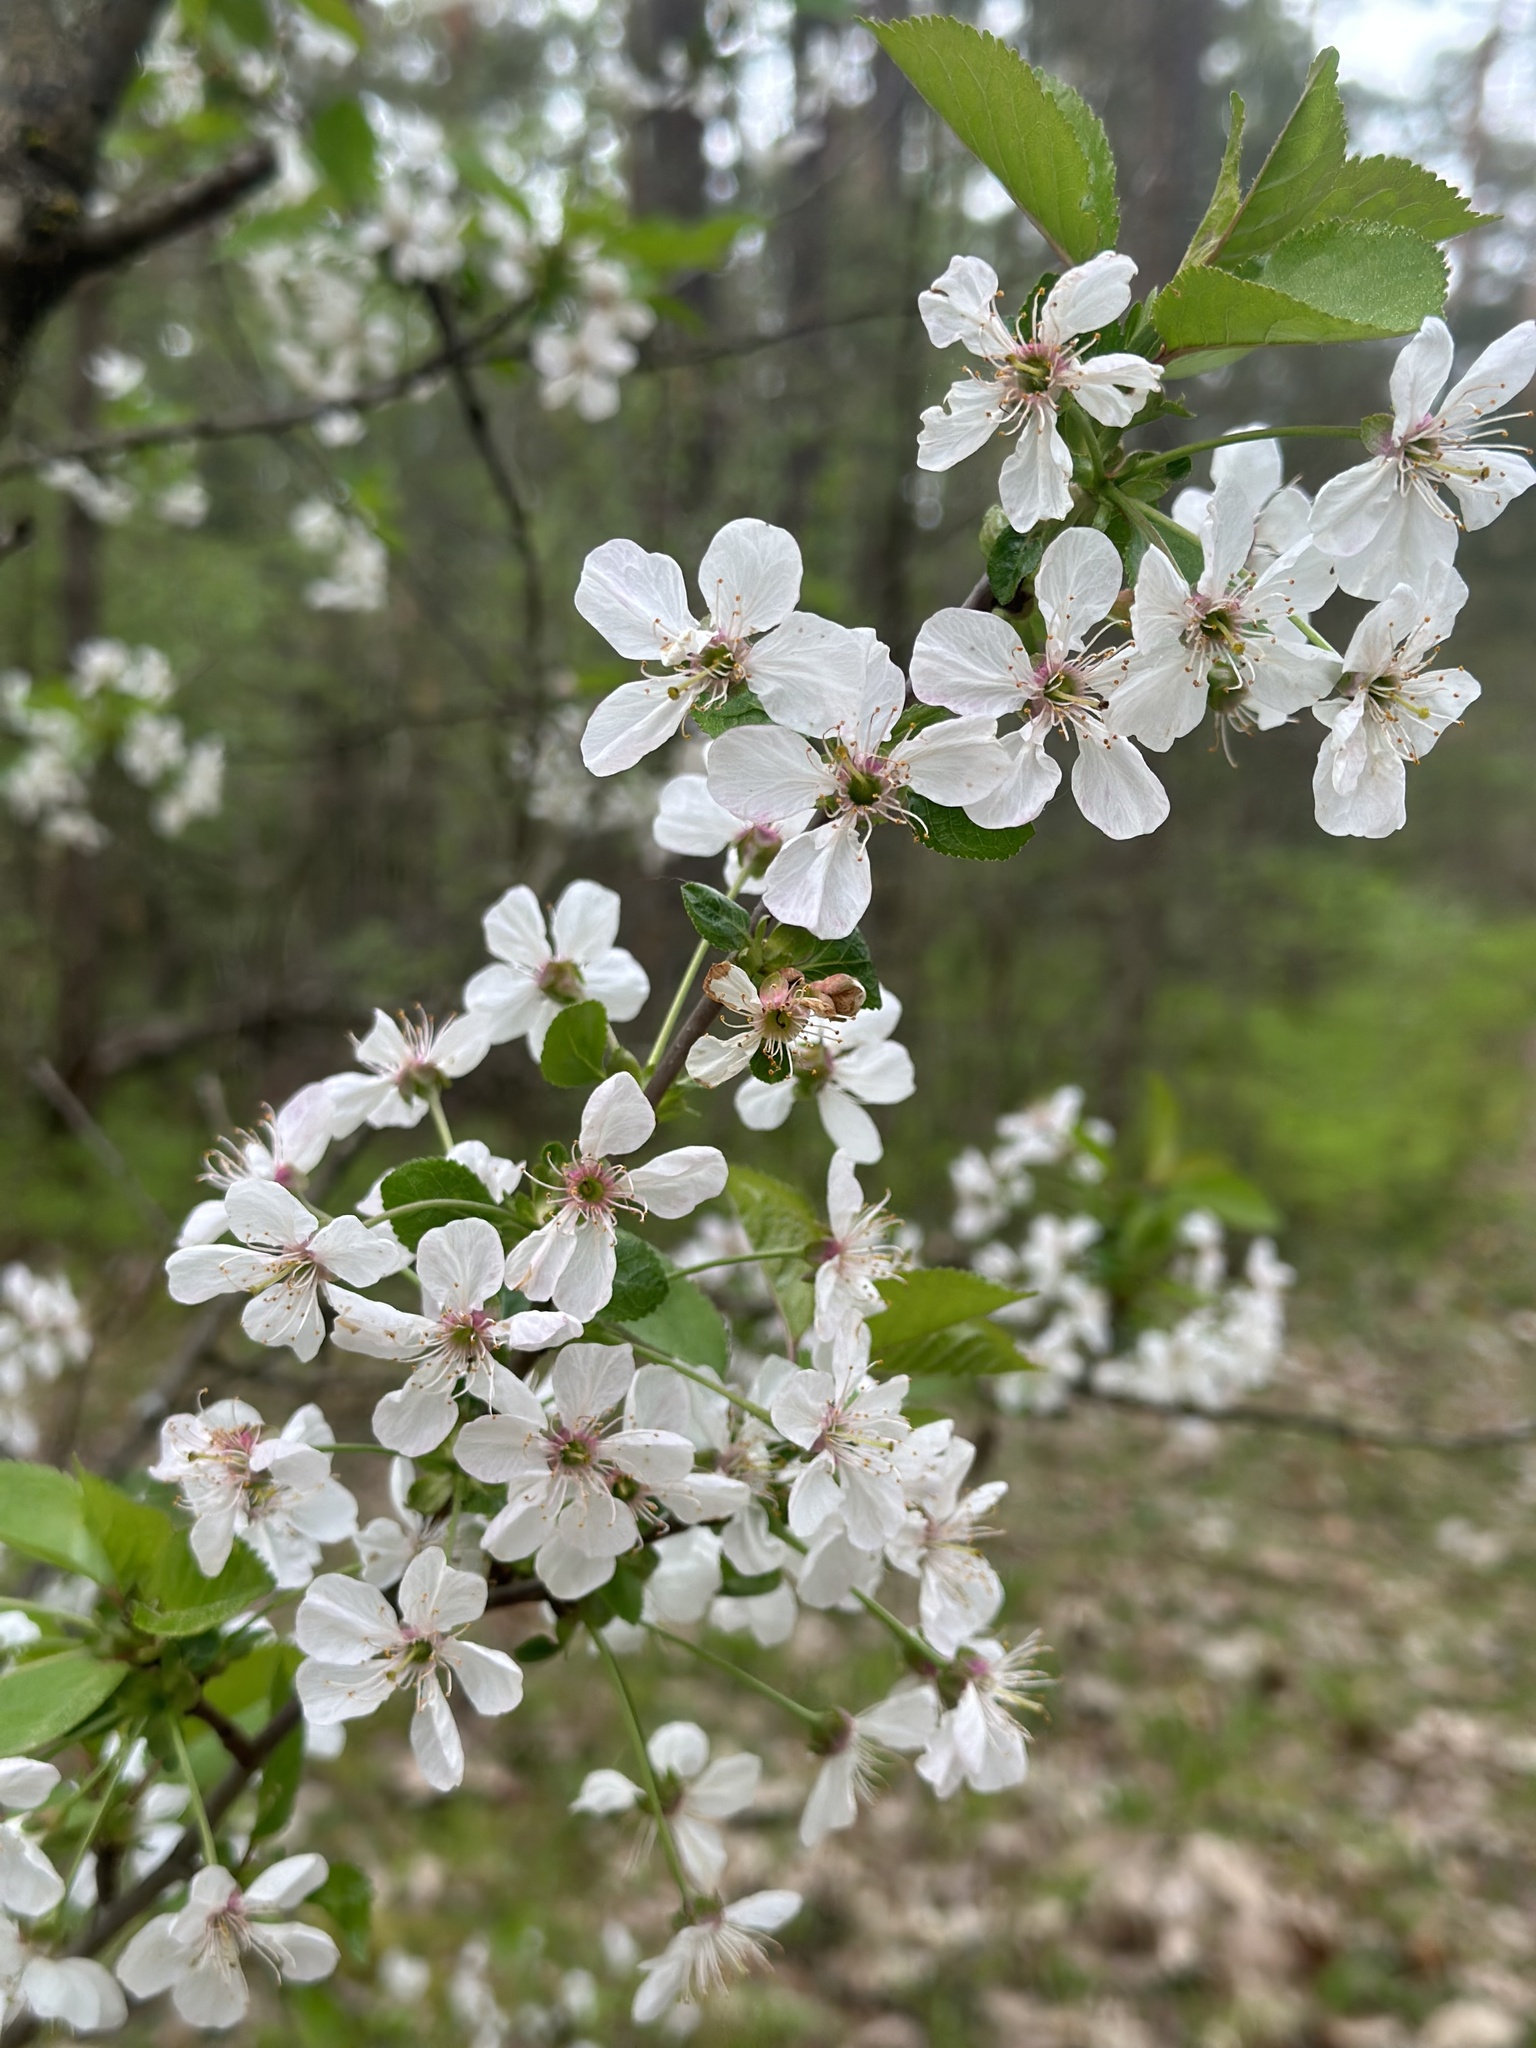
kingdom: Plantae
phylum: Tracheophyta
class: Magnoliopsida
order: Rosales
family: Rosaceae
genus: Prunus
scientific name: Prunus avium
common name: Sweet cherry
